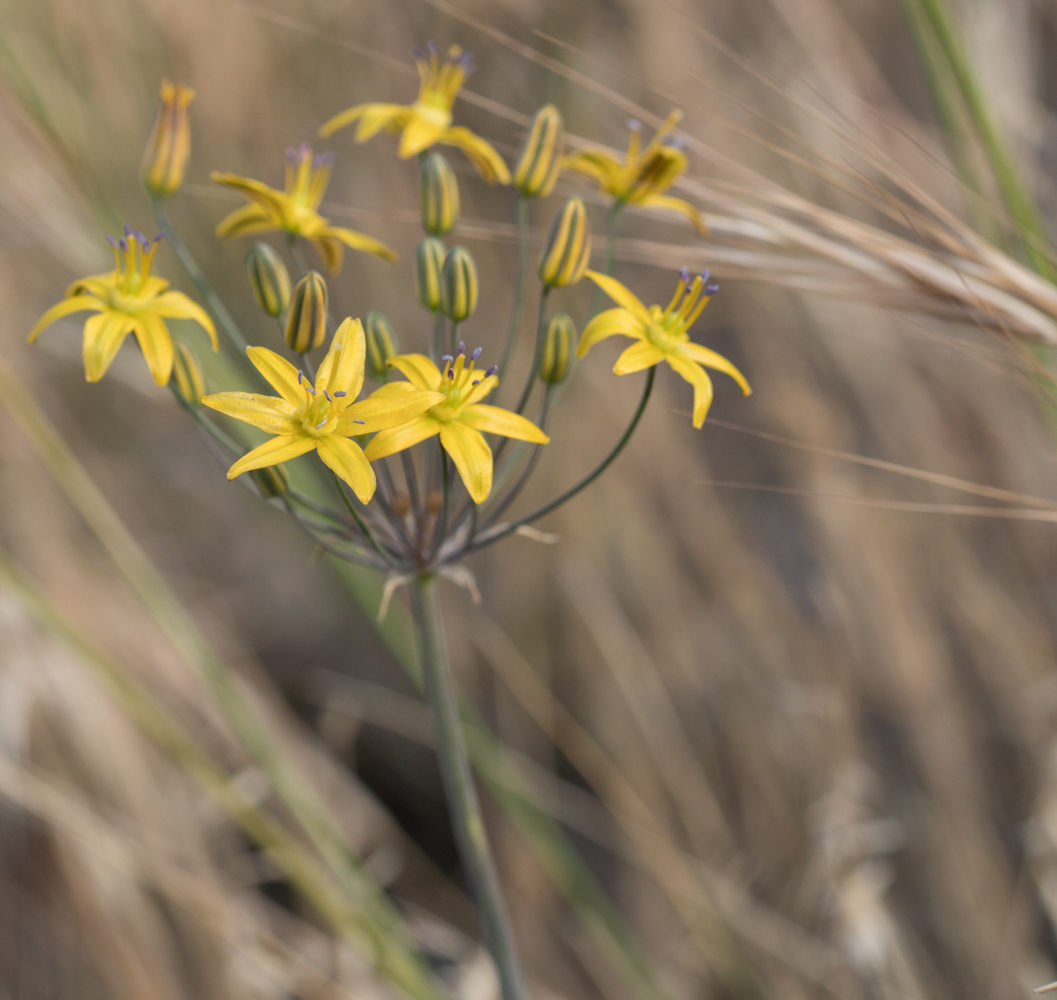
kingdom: Plantae
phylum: Tracheophyta
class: Liliopsida
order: Asparagales
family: Asparagaceae
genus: Bloomeria
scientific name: Bloomeria crocea
